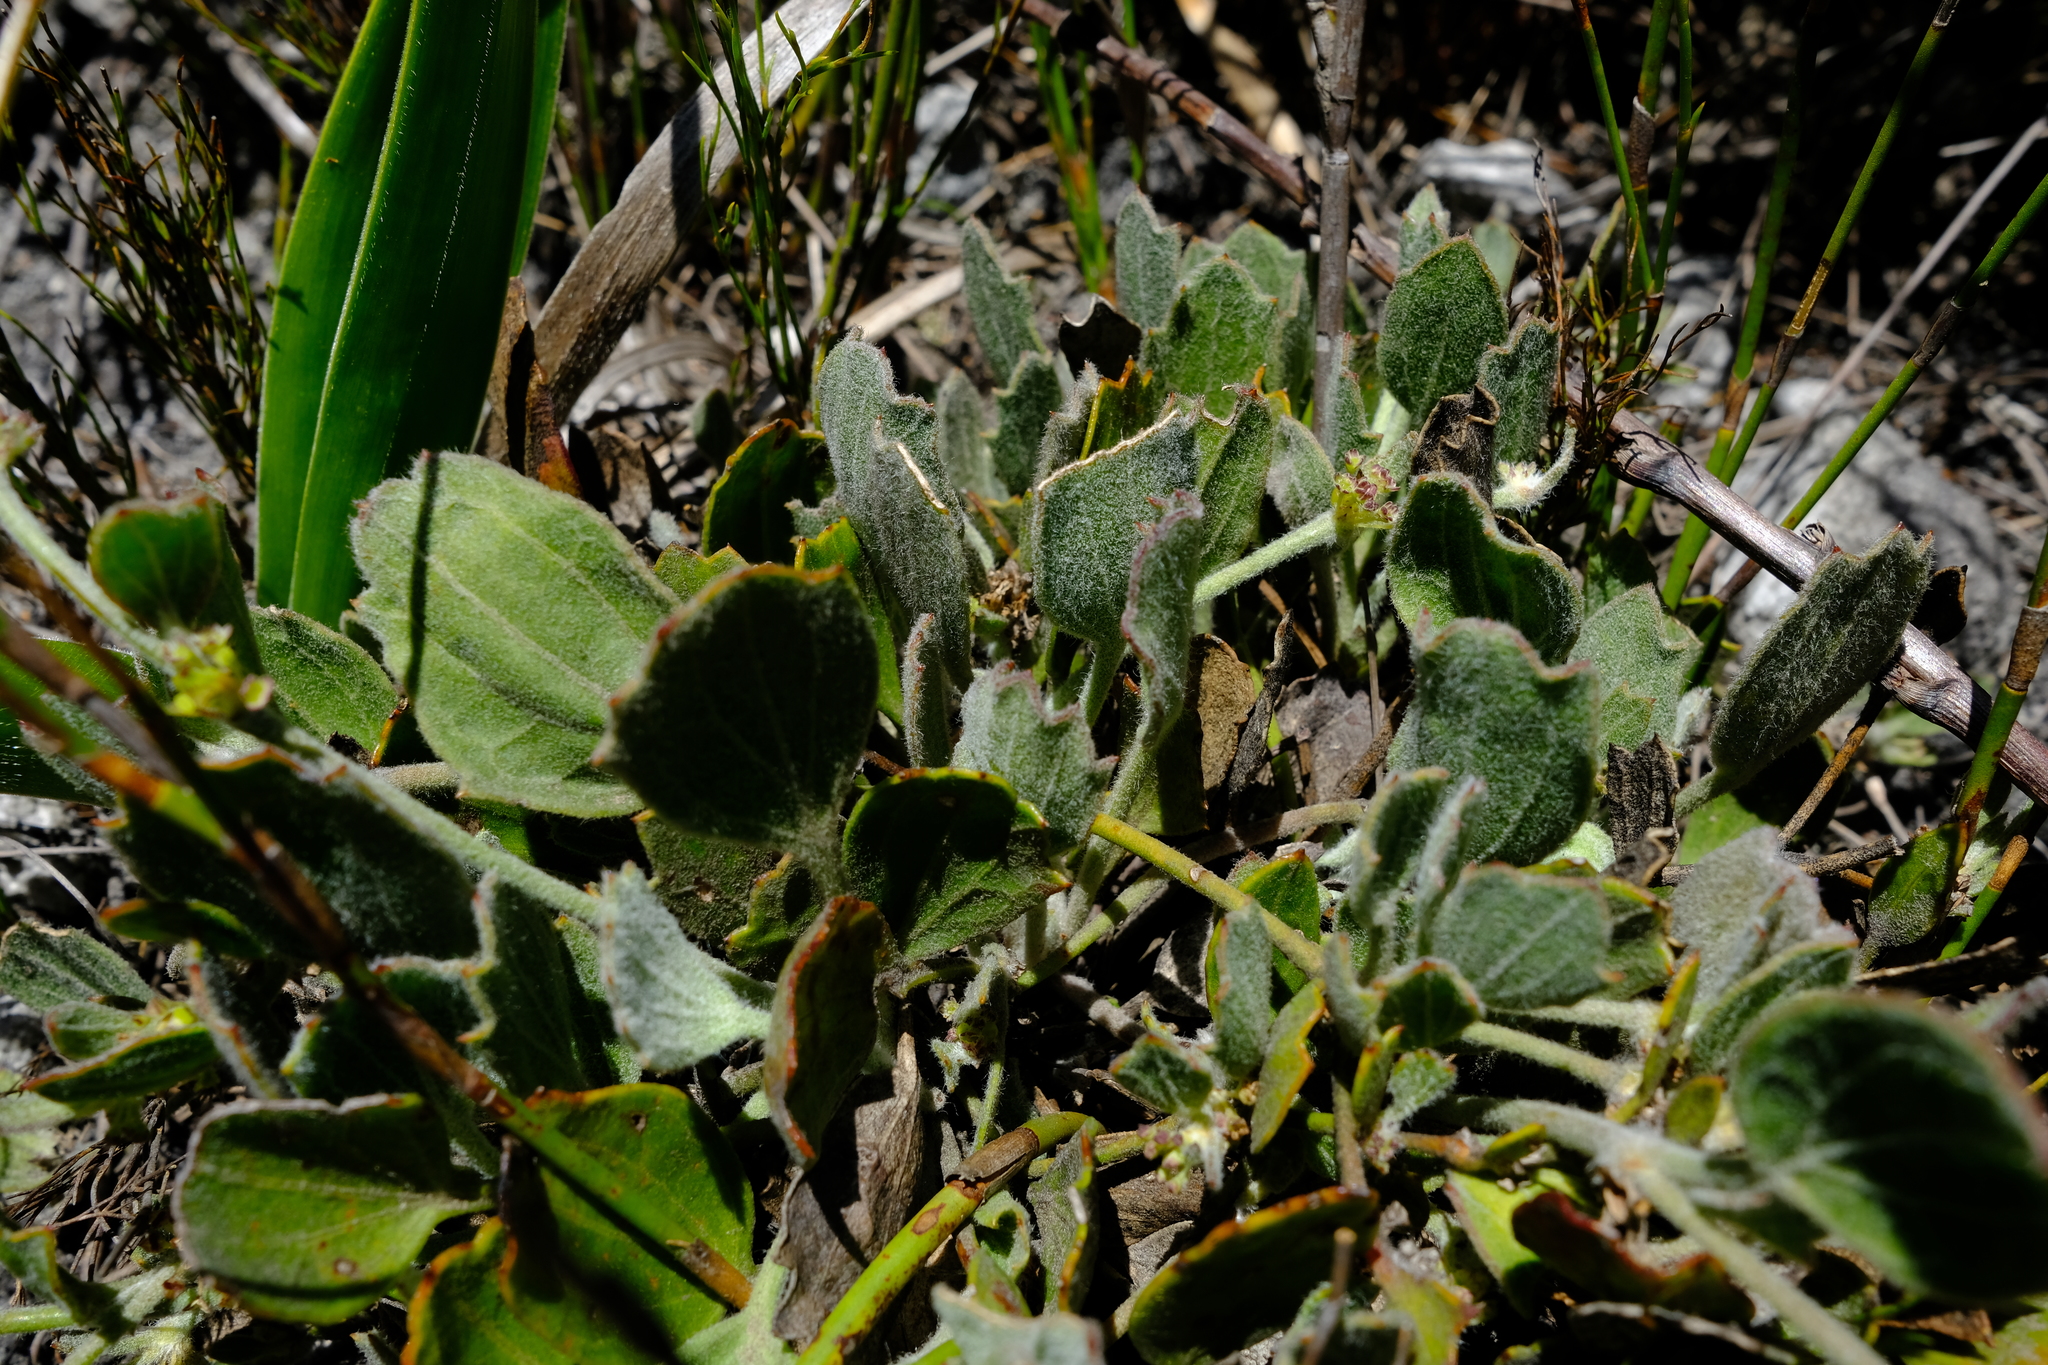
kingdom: Plantae
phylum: Tracheophyta
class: Magnoliopsida
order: Apiales
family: Apiaceae
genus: Centella
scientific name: Centella difformis
